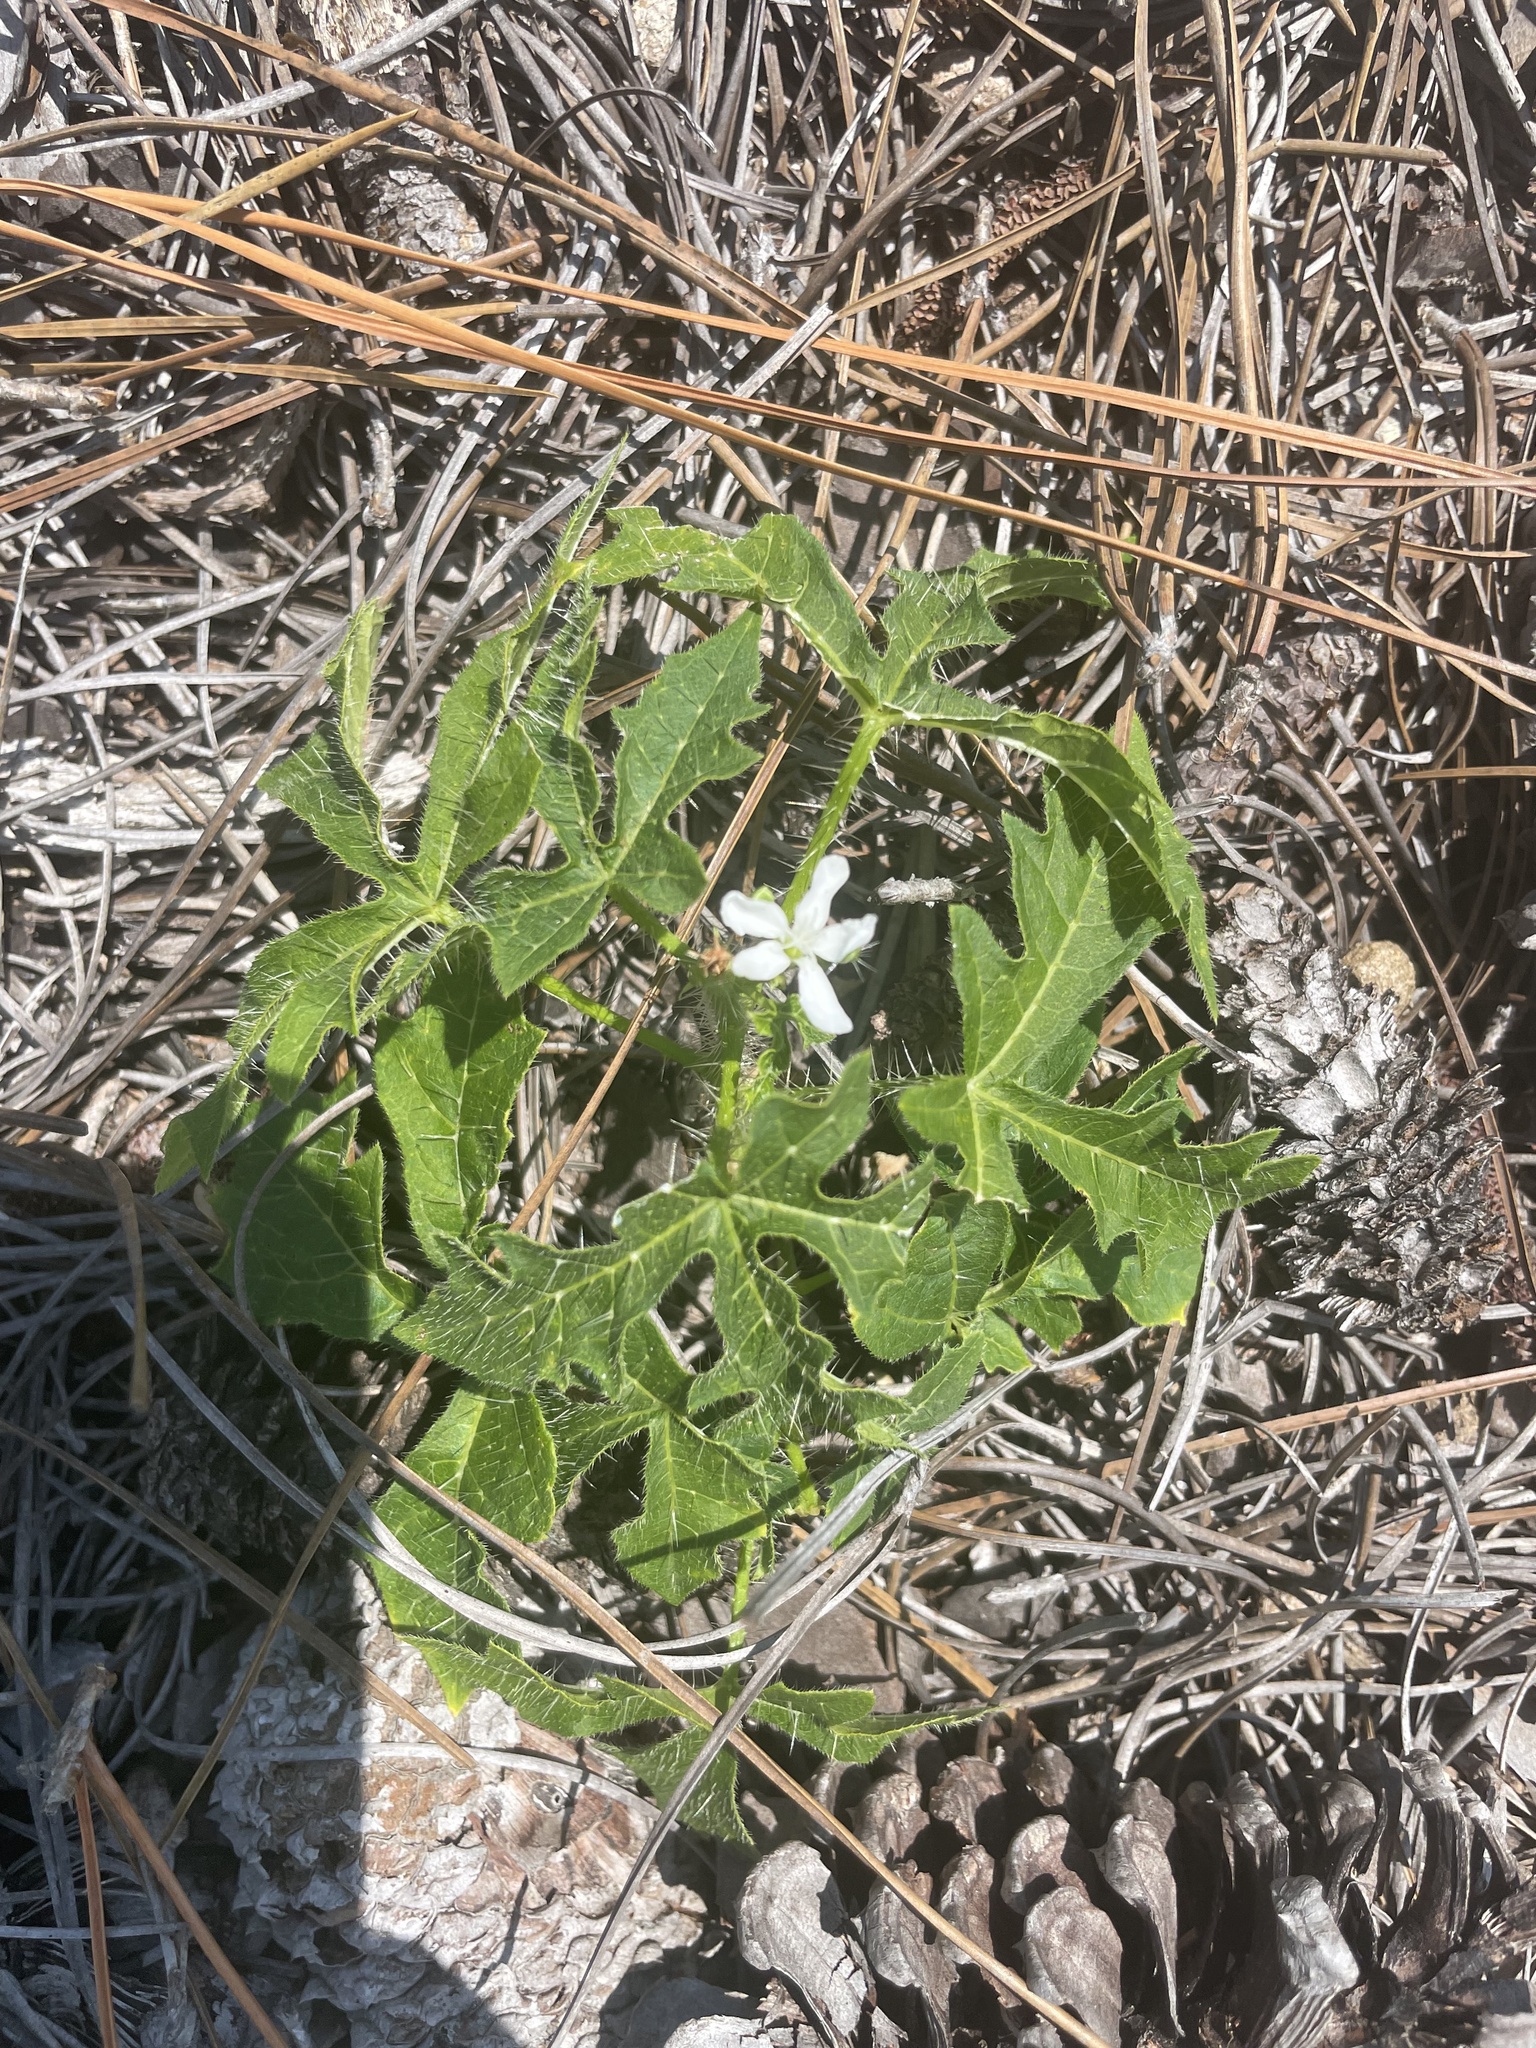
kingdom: Plantae
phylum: Tracheophyta
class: Magnoliopsida
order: Malpighiales
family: Euphorbiaceae
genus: Cnidoscolus
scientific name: Cnidoscolus stimulosus
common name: Bull-nettle
